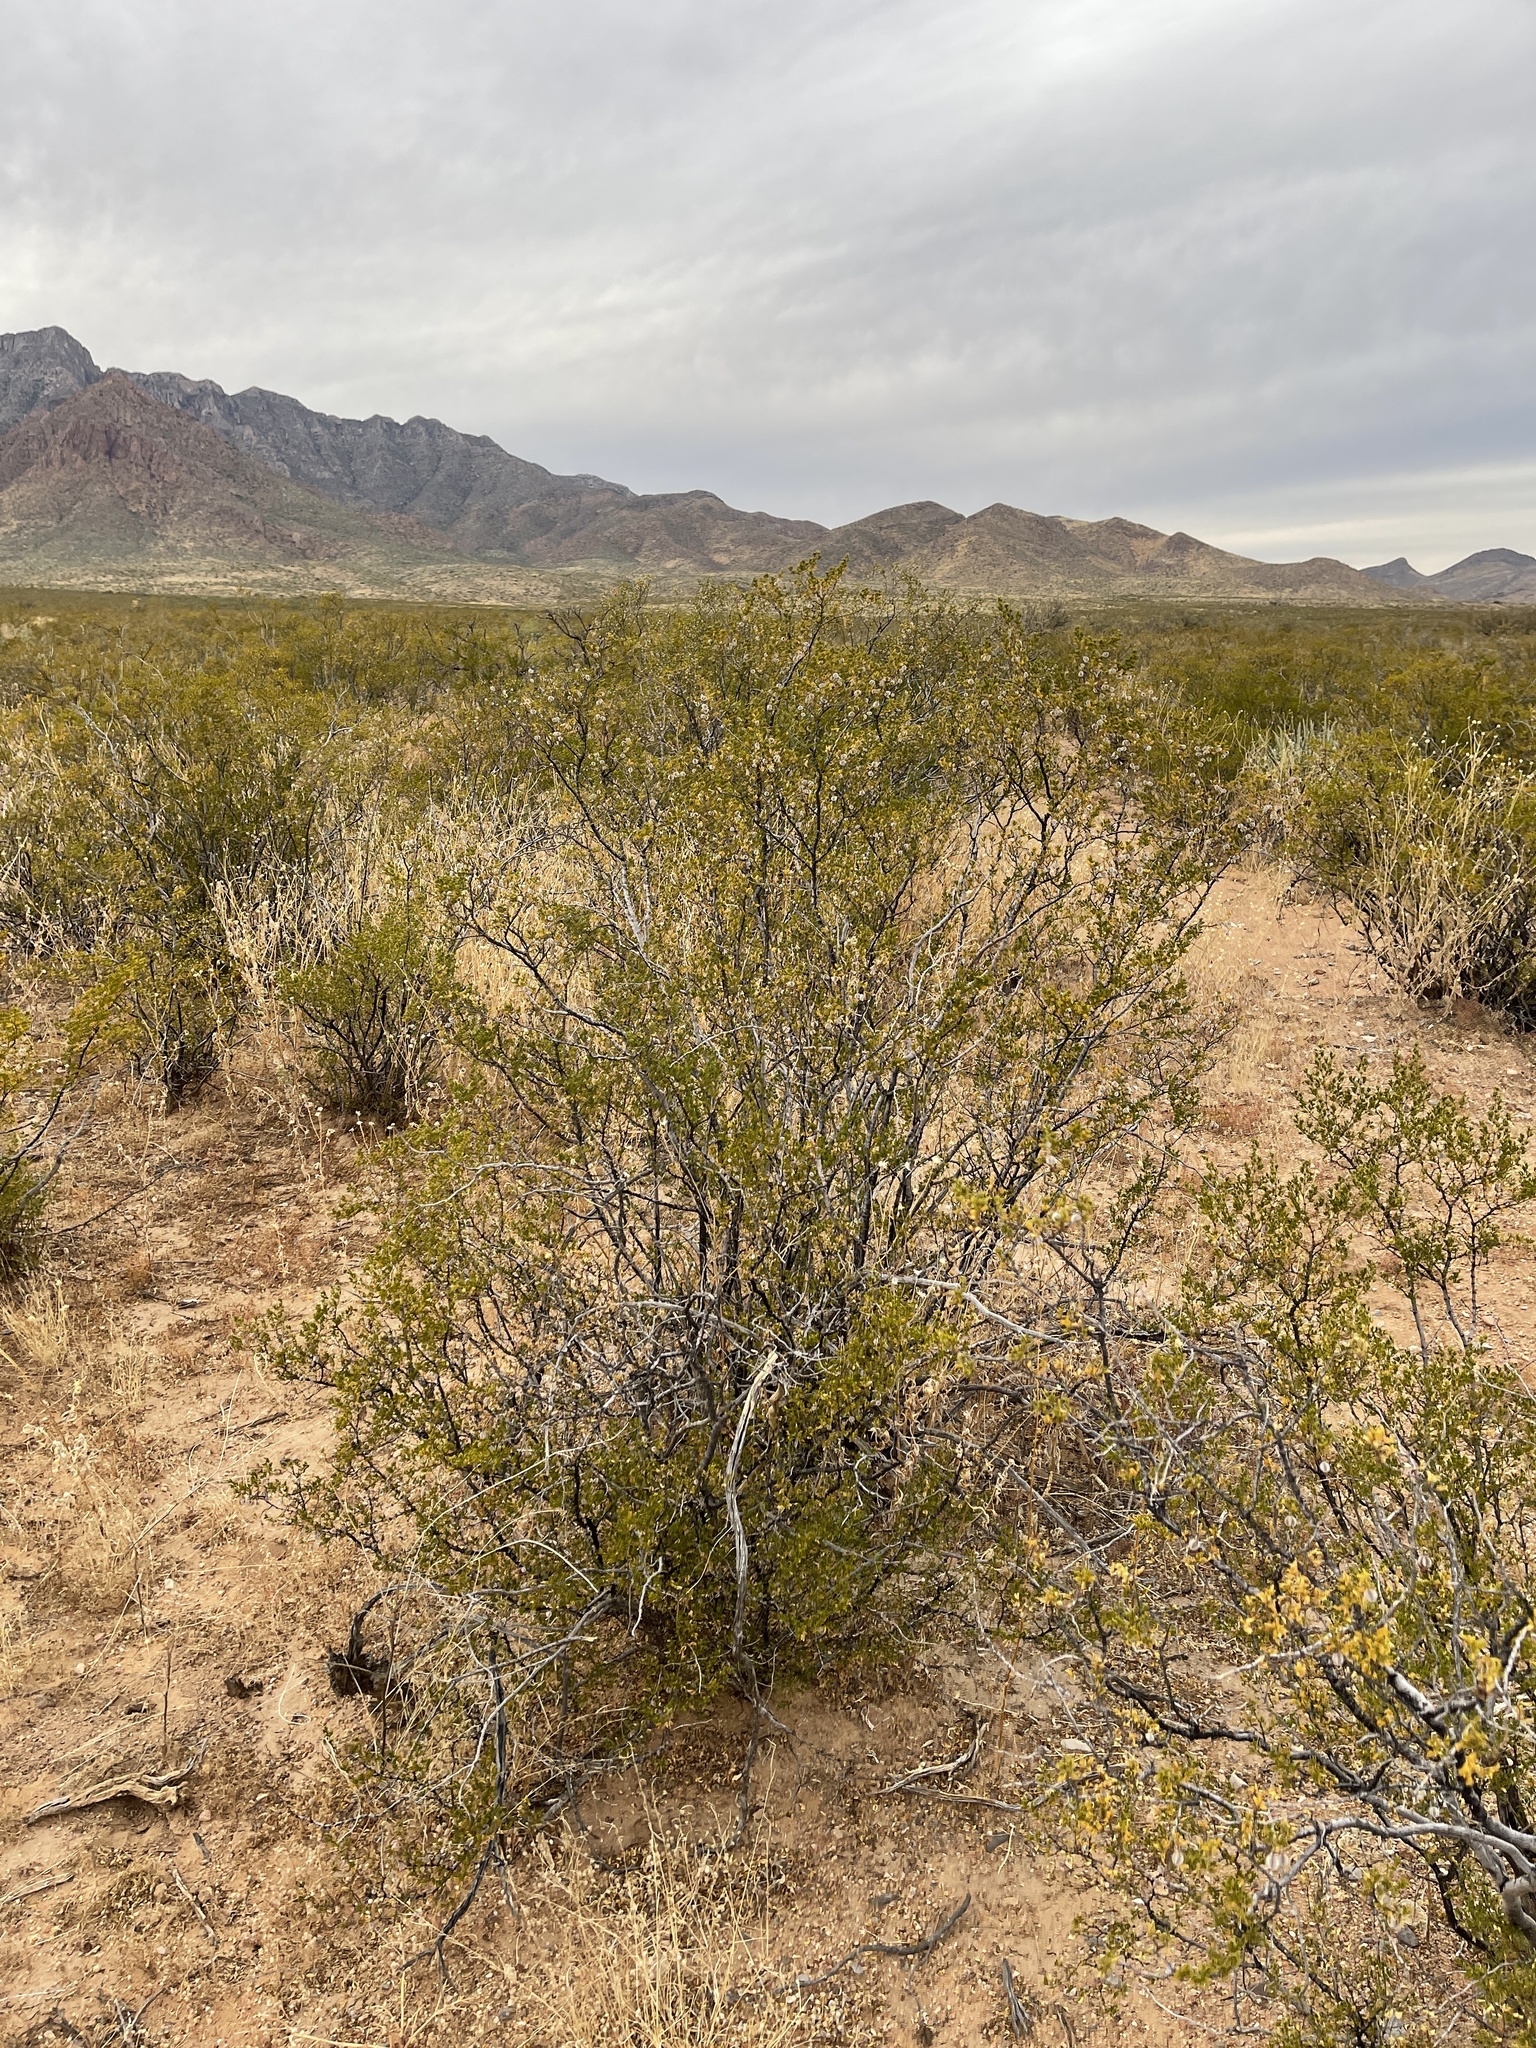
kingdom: Plantae
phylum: Tracheophyta
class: Magnoliopsida
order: Zygophyllales
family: Zygophyllaceae
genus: Larrea
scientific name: Larrea tridentata
